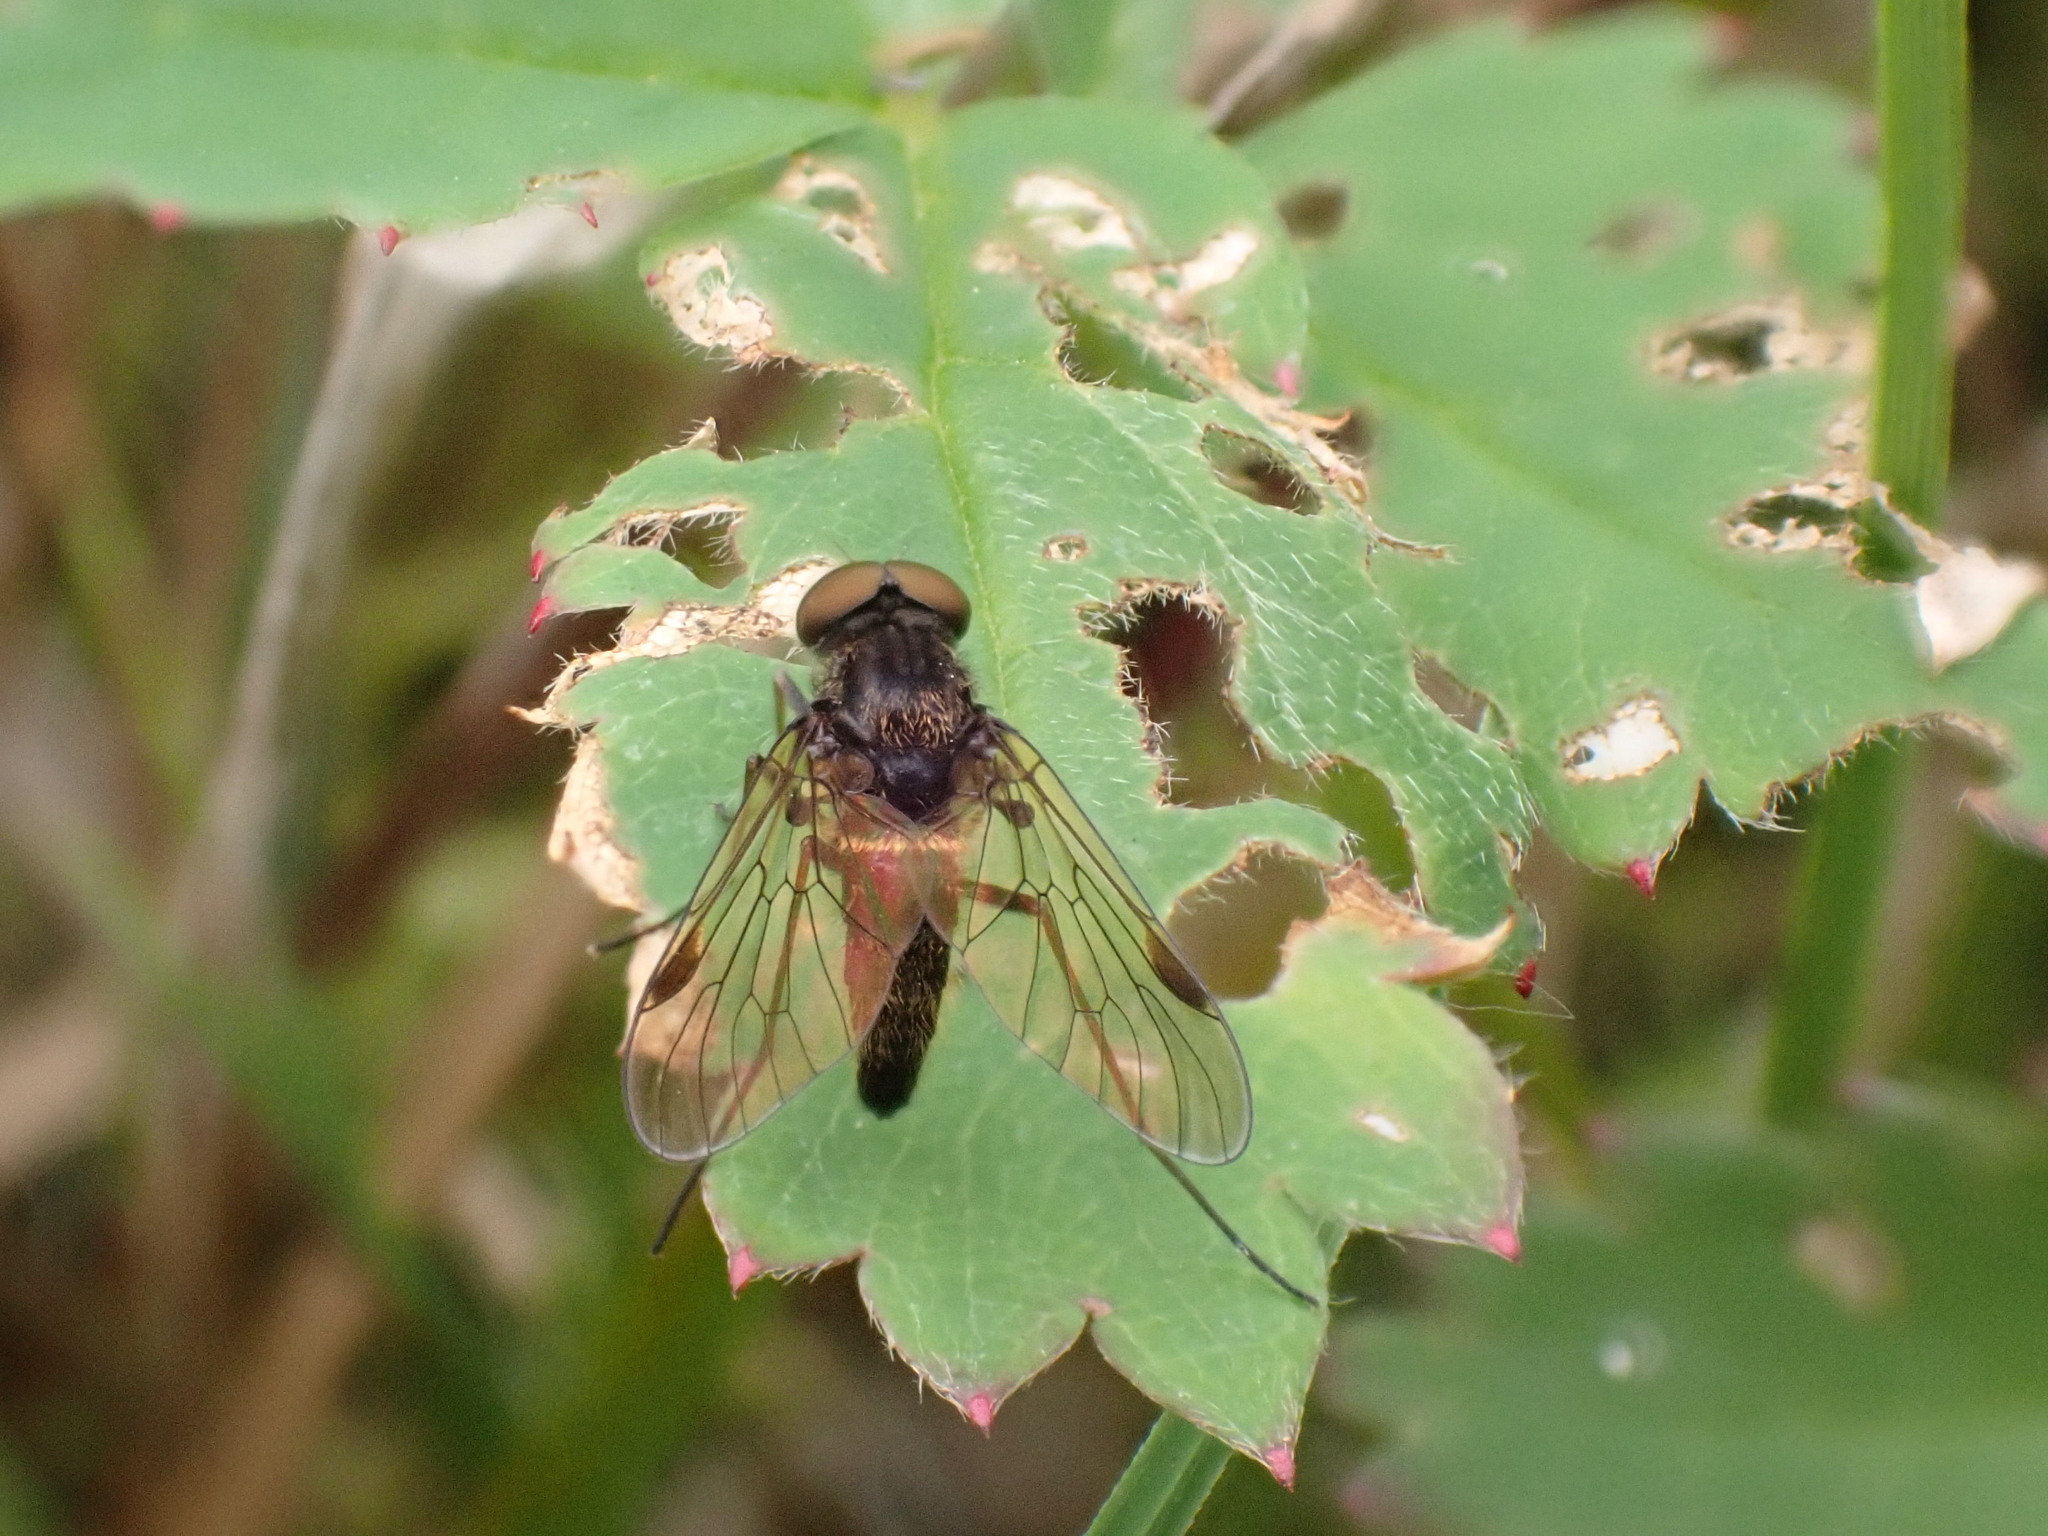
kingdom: Animalia
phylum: Arthropoda
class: Insecta
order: Diptera
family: Rhagionidae
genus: Chrysopilus
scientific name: Chrysopilus cristatus
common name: Black snipefly
